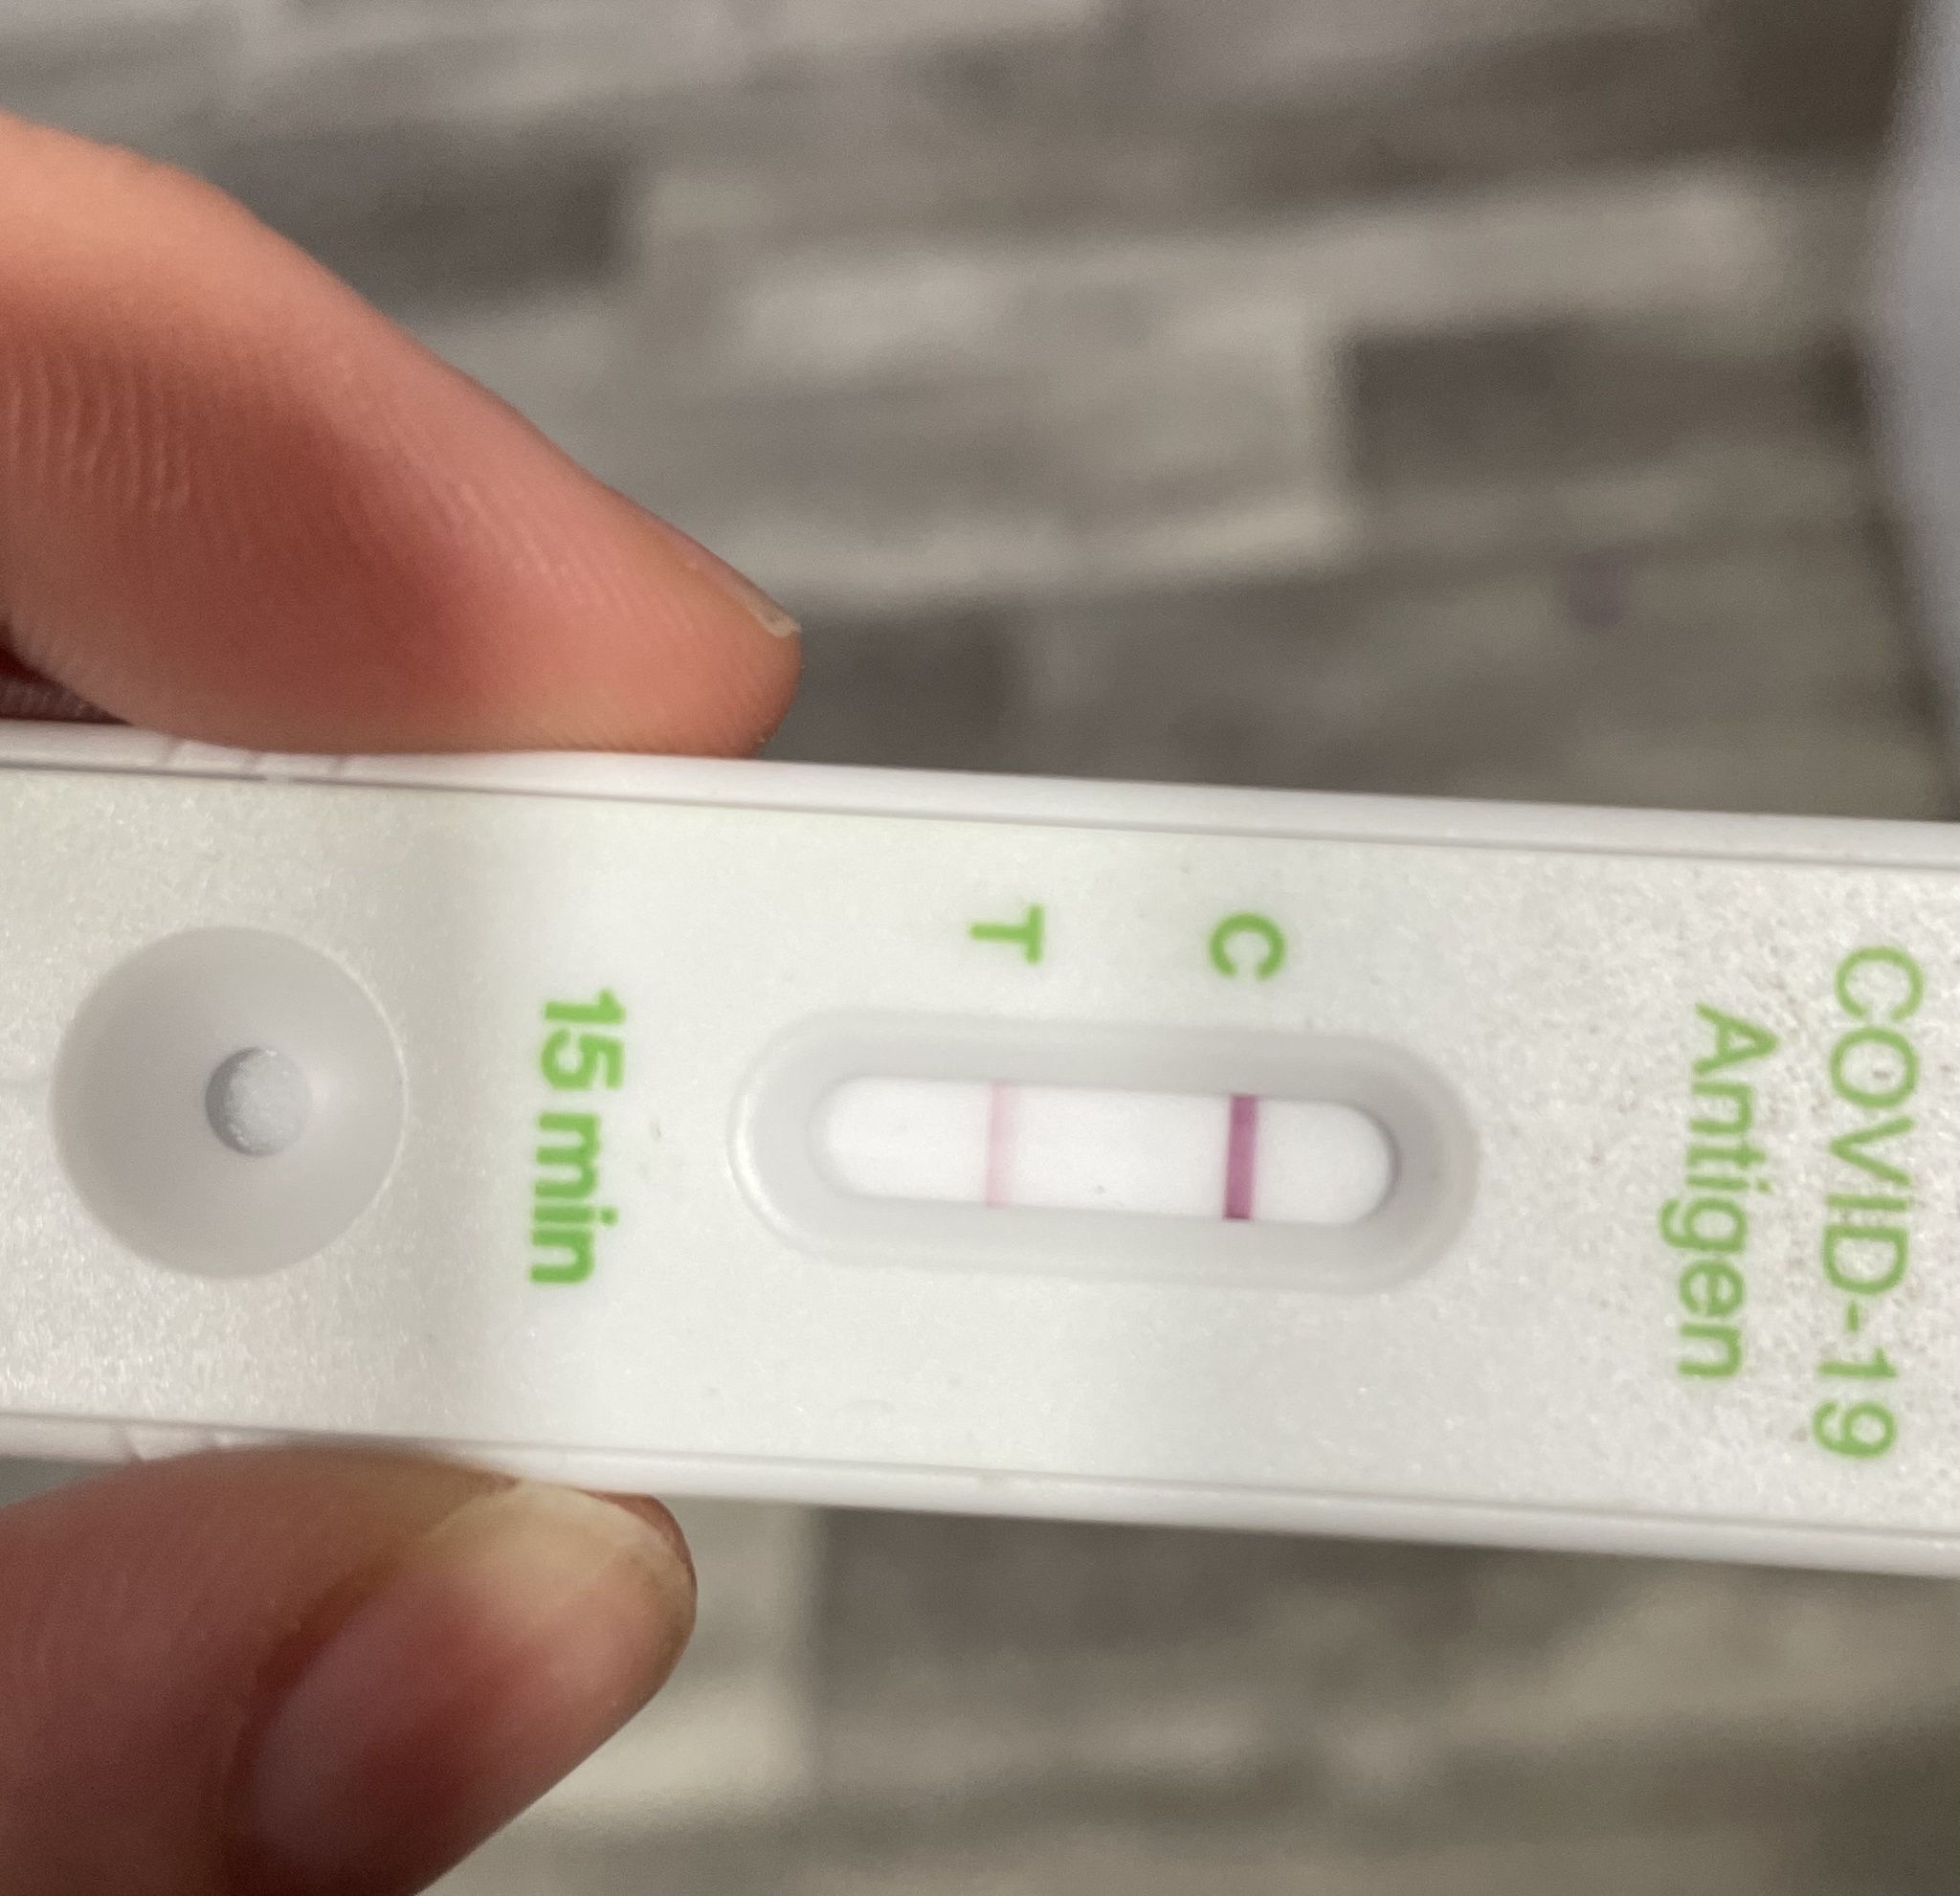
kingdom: Viruses
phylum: Pisuviricota
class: Pisoniviricetes
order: Nidovirales
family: Coronaviridae
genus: Betacoronavirus
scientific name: Betacoronavirus
